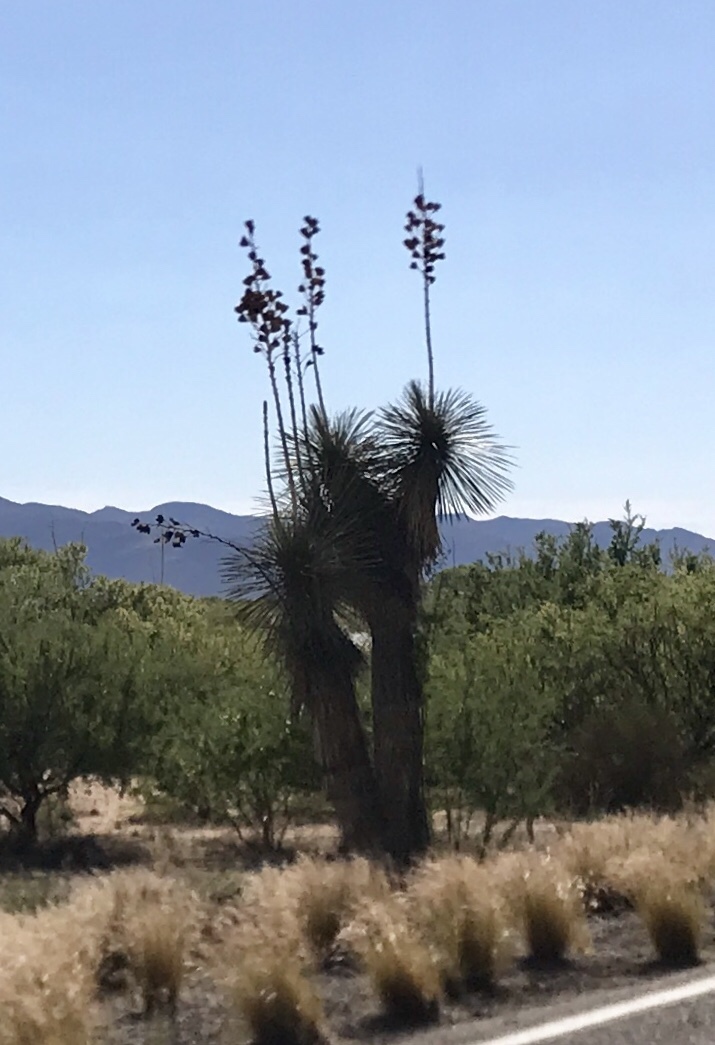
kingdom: Plantae
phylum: Tracheophyta
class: Liliopsida
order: Asparagales
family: Asparagaceae
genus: Yucca
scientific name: Yucca elata
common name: Palmella
